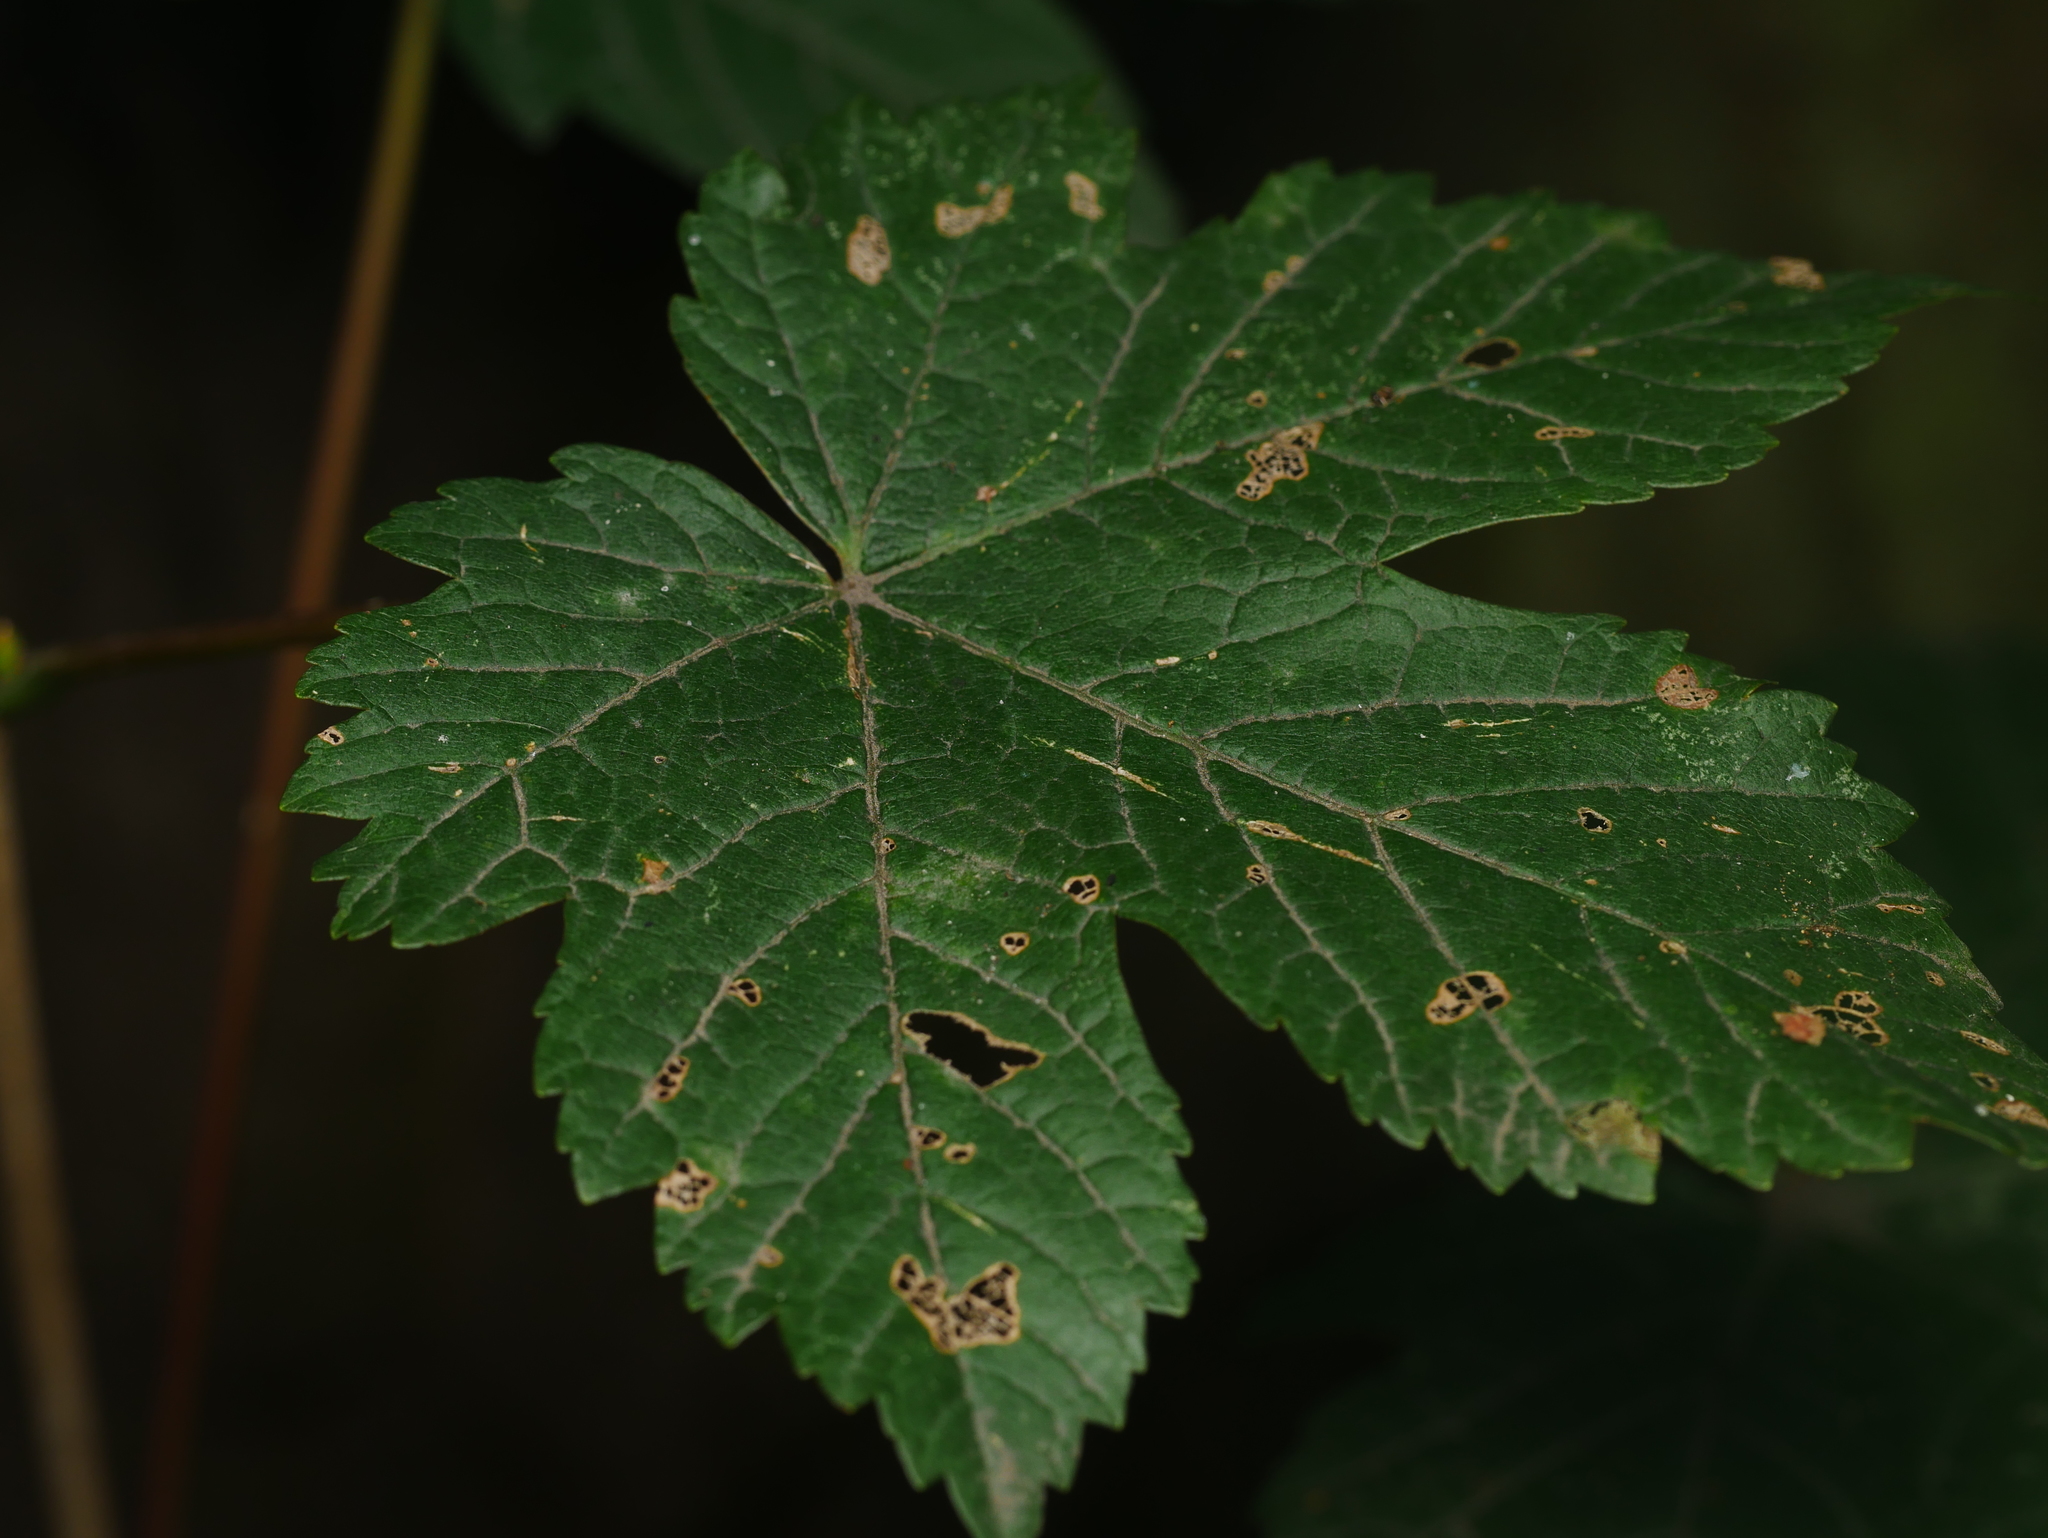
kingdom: Plantae
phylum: Tracheophyta
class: Magnoliopsida
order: Sapindales
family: Sapindaceae
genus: Acer
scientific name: Acer pseudoplatanus
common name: Sycamore
